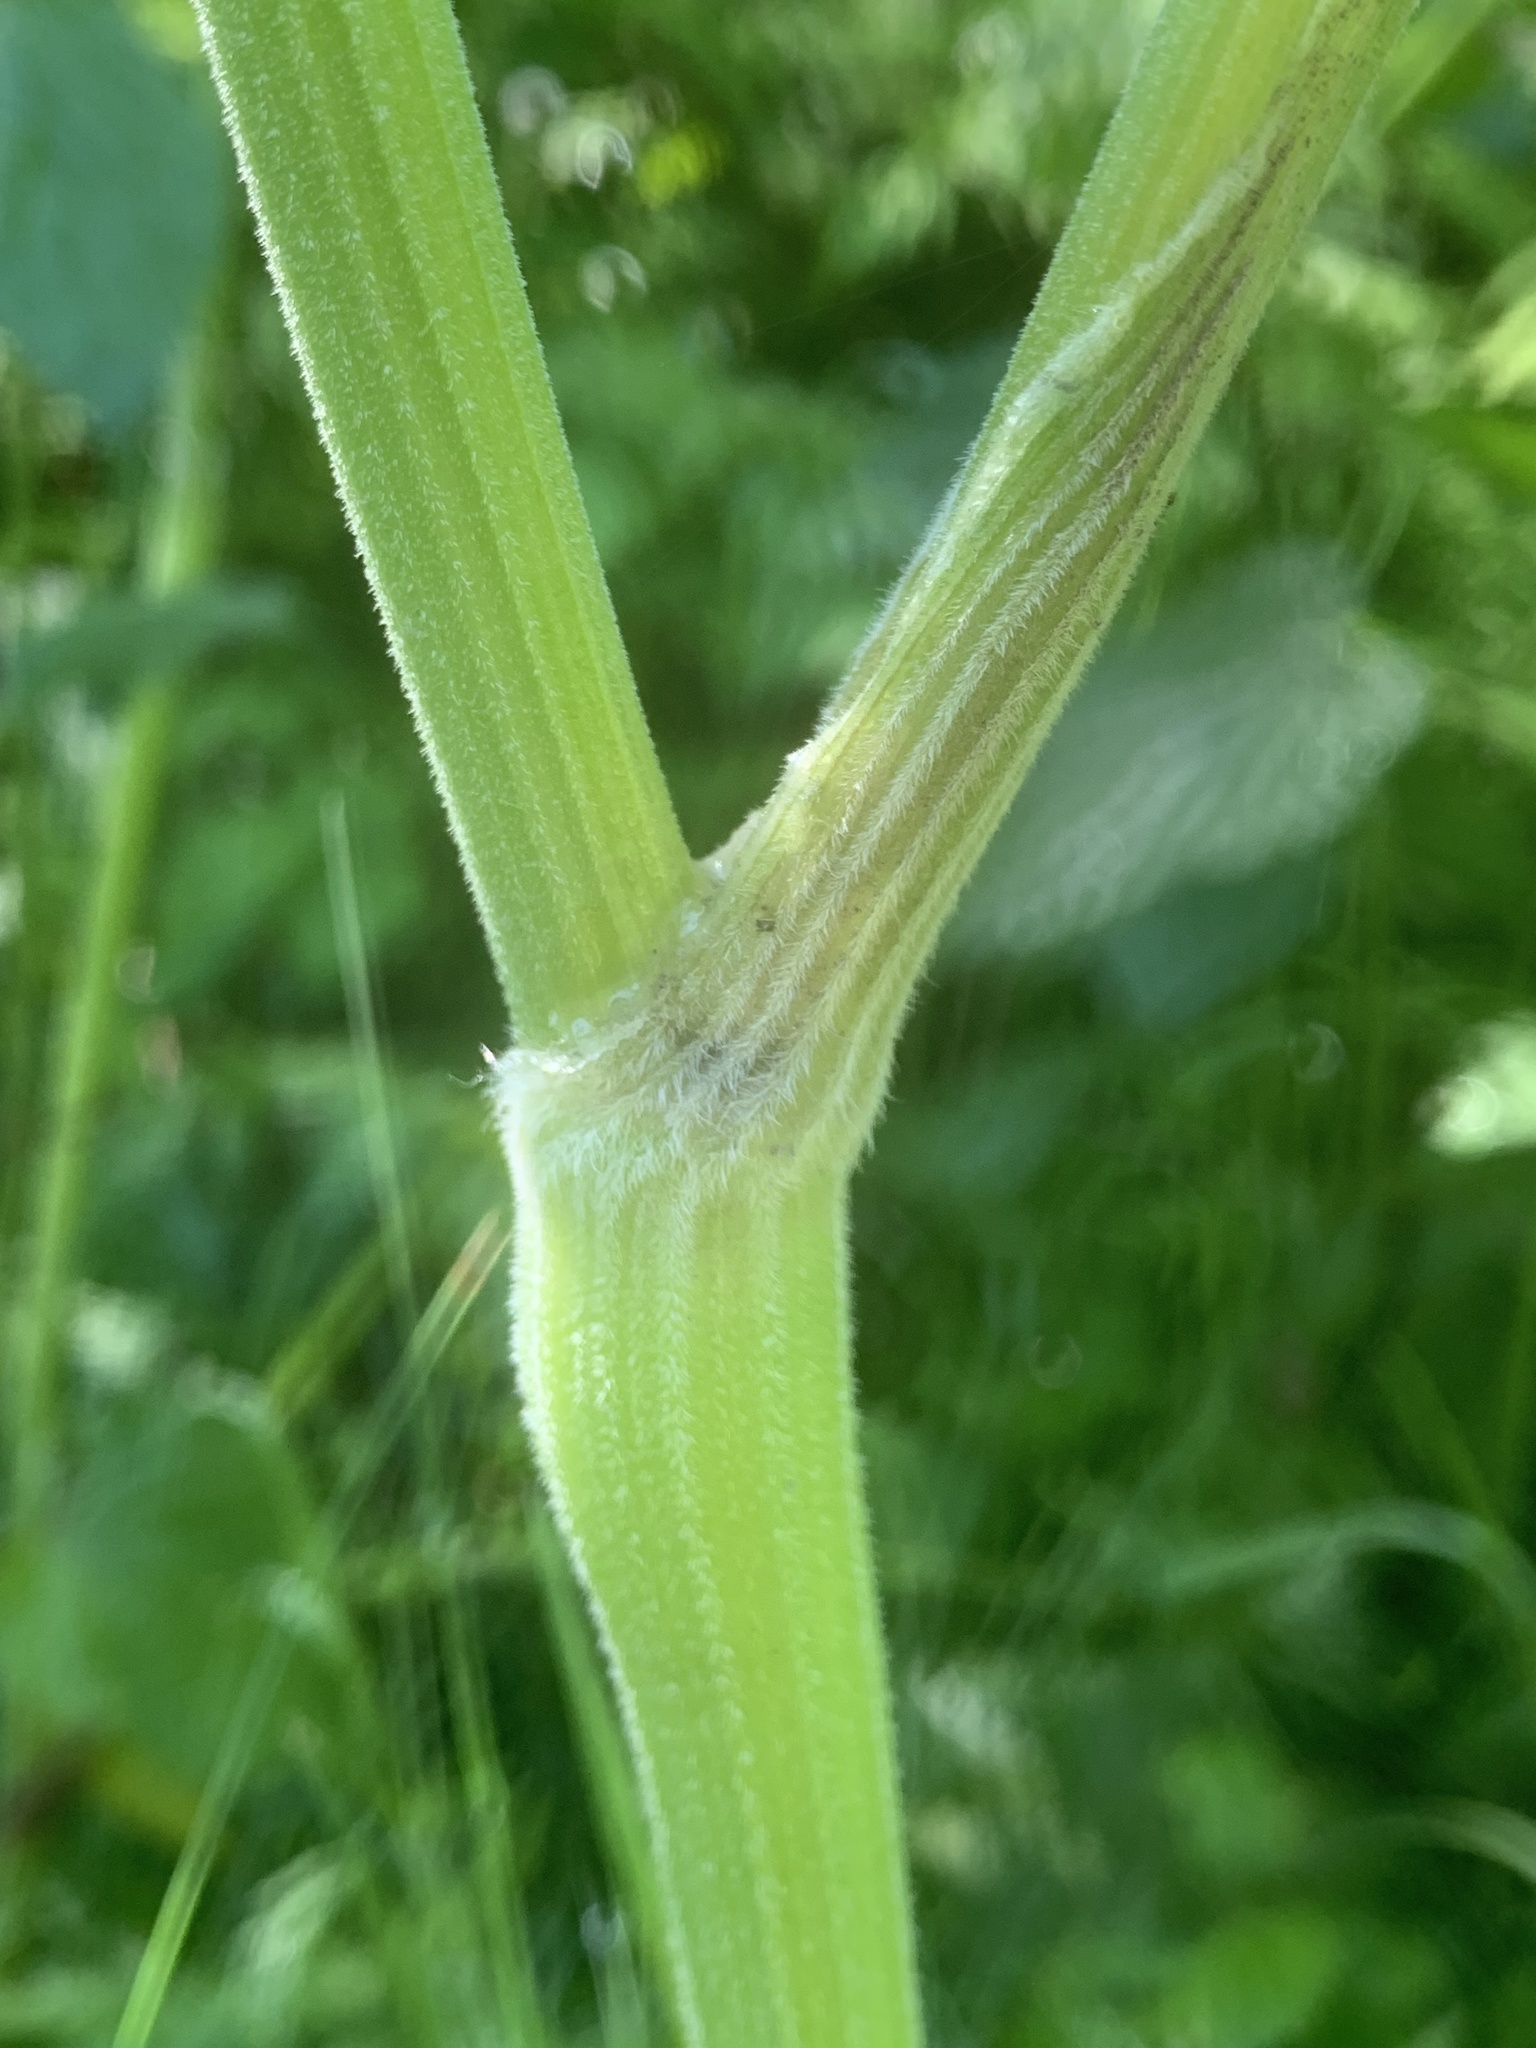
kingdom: Plantae
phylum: Tracheophyta
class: Magnoliopsida
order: Apiales
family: Apiaceae
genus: Anthriscus
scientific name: Anthriscus sylvestris
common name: Cow parsley
